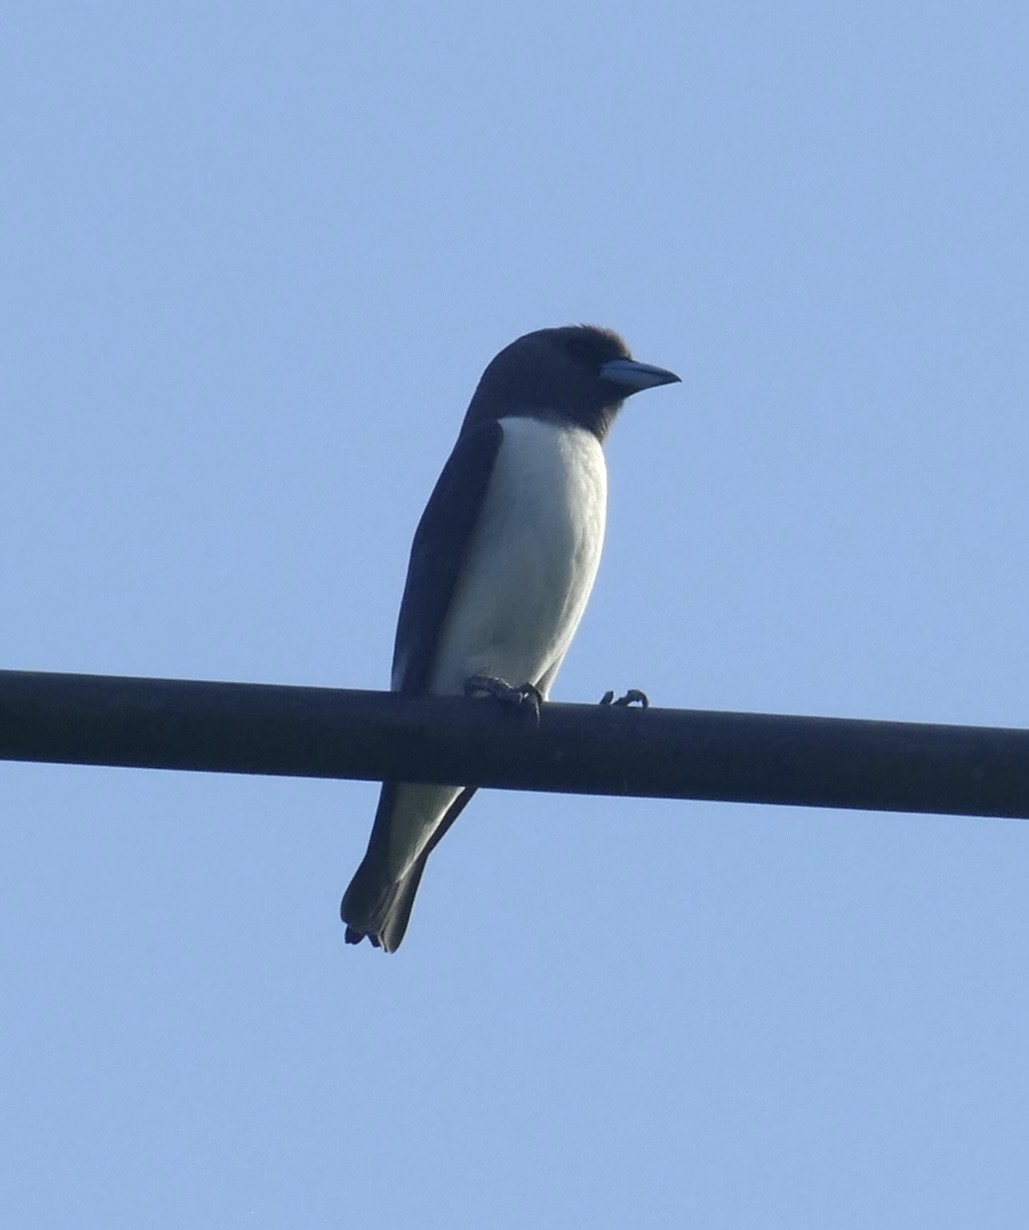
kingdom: Animalia
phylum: Chordata
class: Aves
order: Passeriformes
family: Artamidae
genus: Artamus
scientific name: Artamus leucoryn
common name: White-breasted woodswallow
